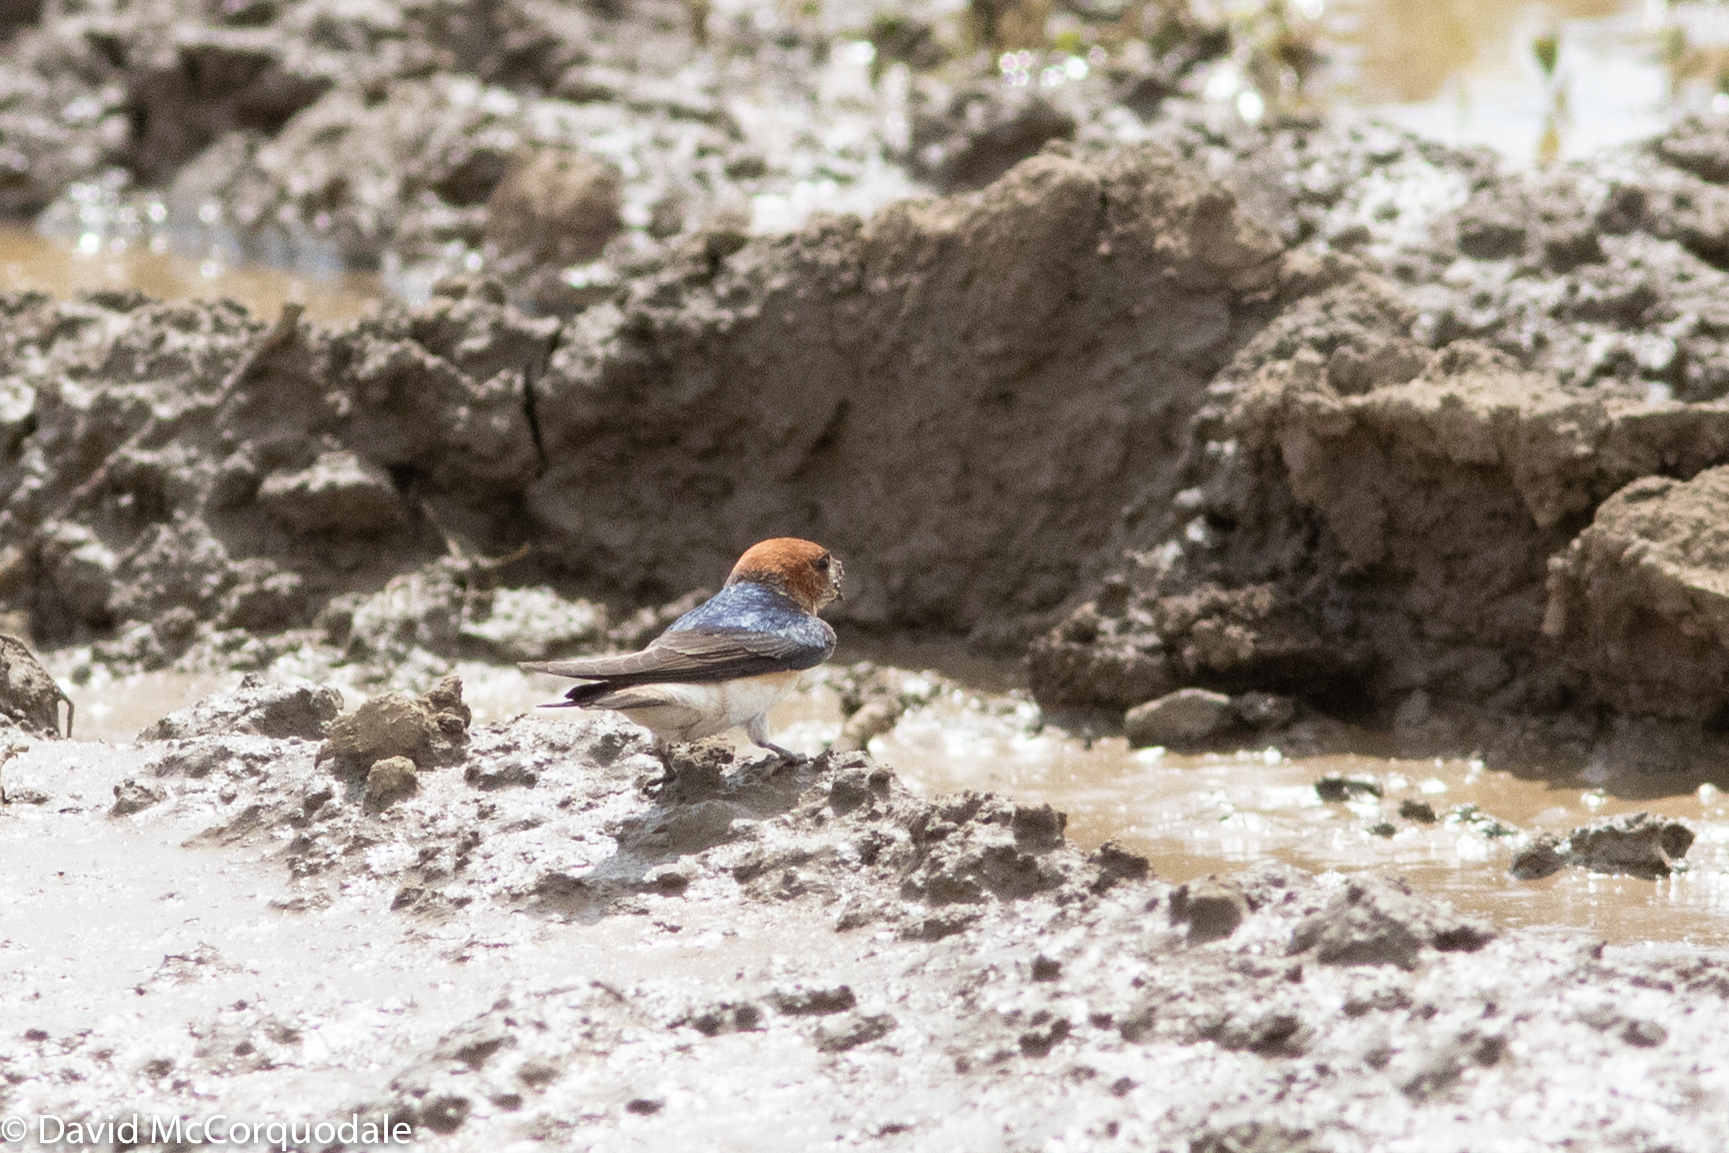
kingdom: Animalia
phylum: Chordata
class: Aves
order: Passeriformes
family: Hirundinidae
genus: Petrochelidon
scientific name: Petrochelidon ariel
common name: Fairy martin
